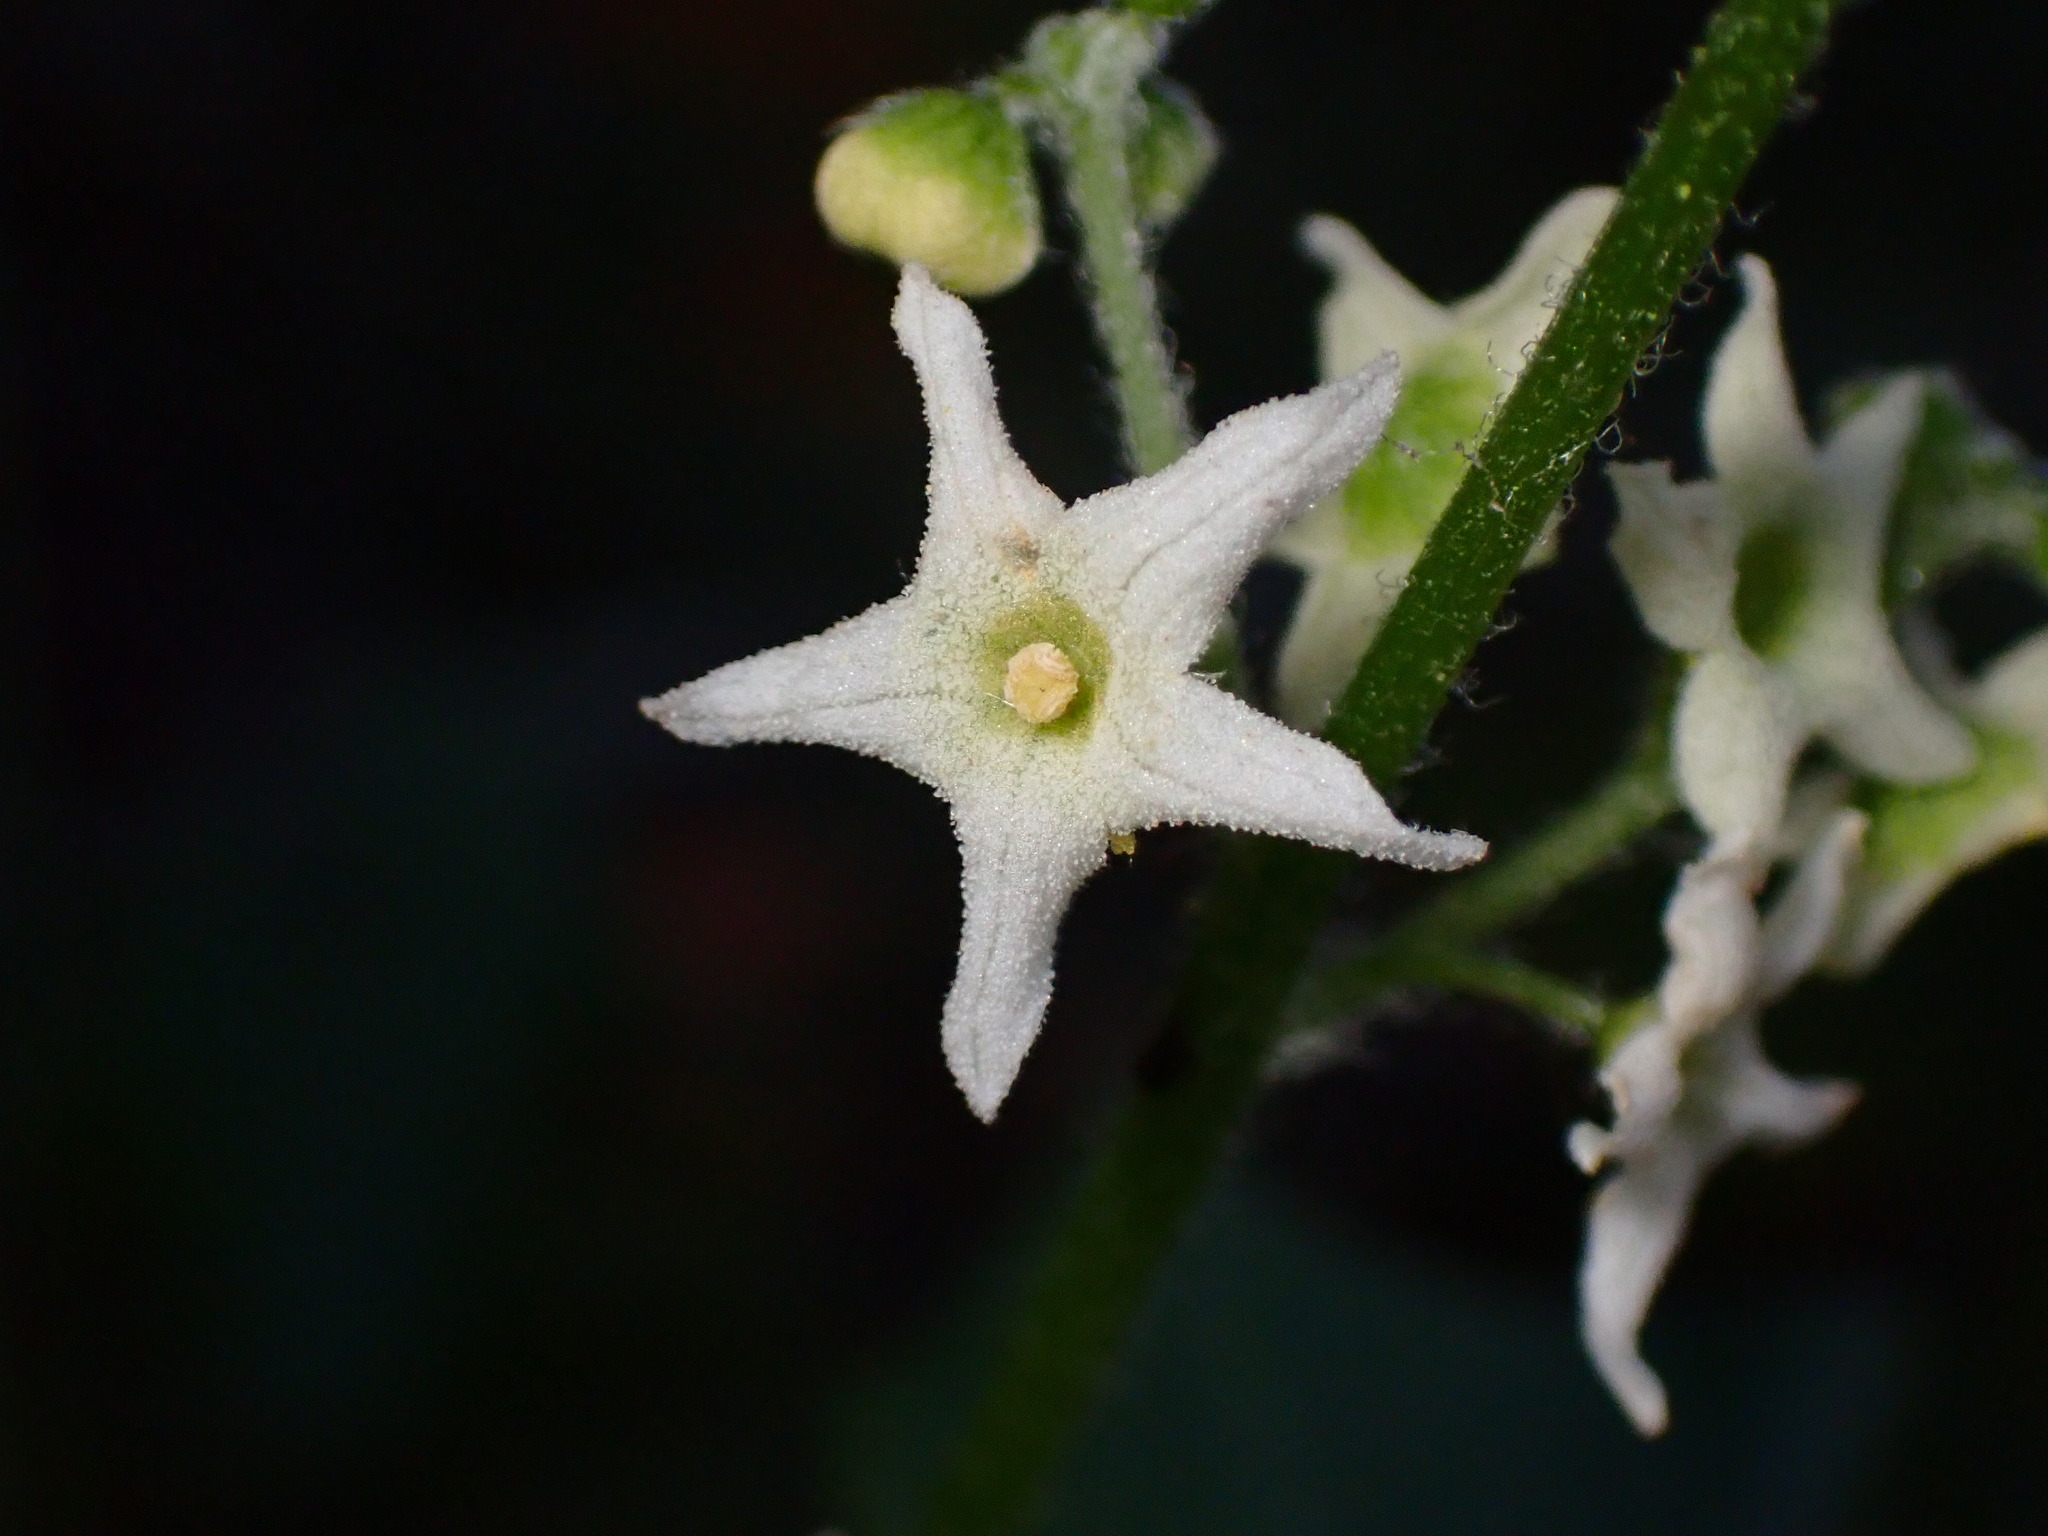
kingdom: Plantae
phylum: Tracheophyta
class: Magnoliopsida
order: Cucurbitales
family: Cucurbitaceae
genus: Marah
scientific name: Marah fabacea
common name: California manroot
